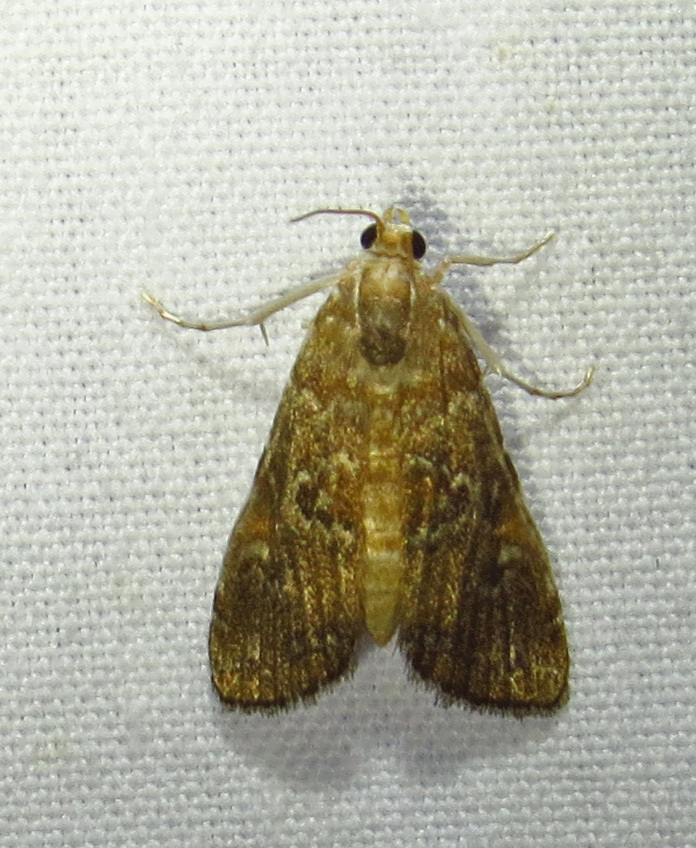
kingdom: Animalia
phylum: Arthropoda
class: Insecta
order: Lepidoptera
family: Crambidae
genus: Elophila
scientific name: Elophila gyralis
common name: Waterlily borer moth
